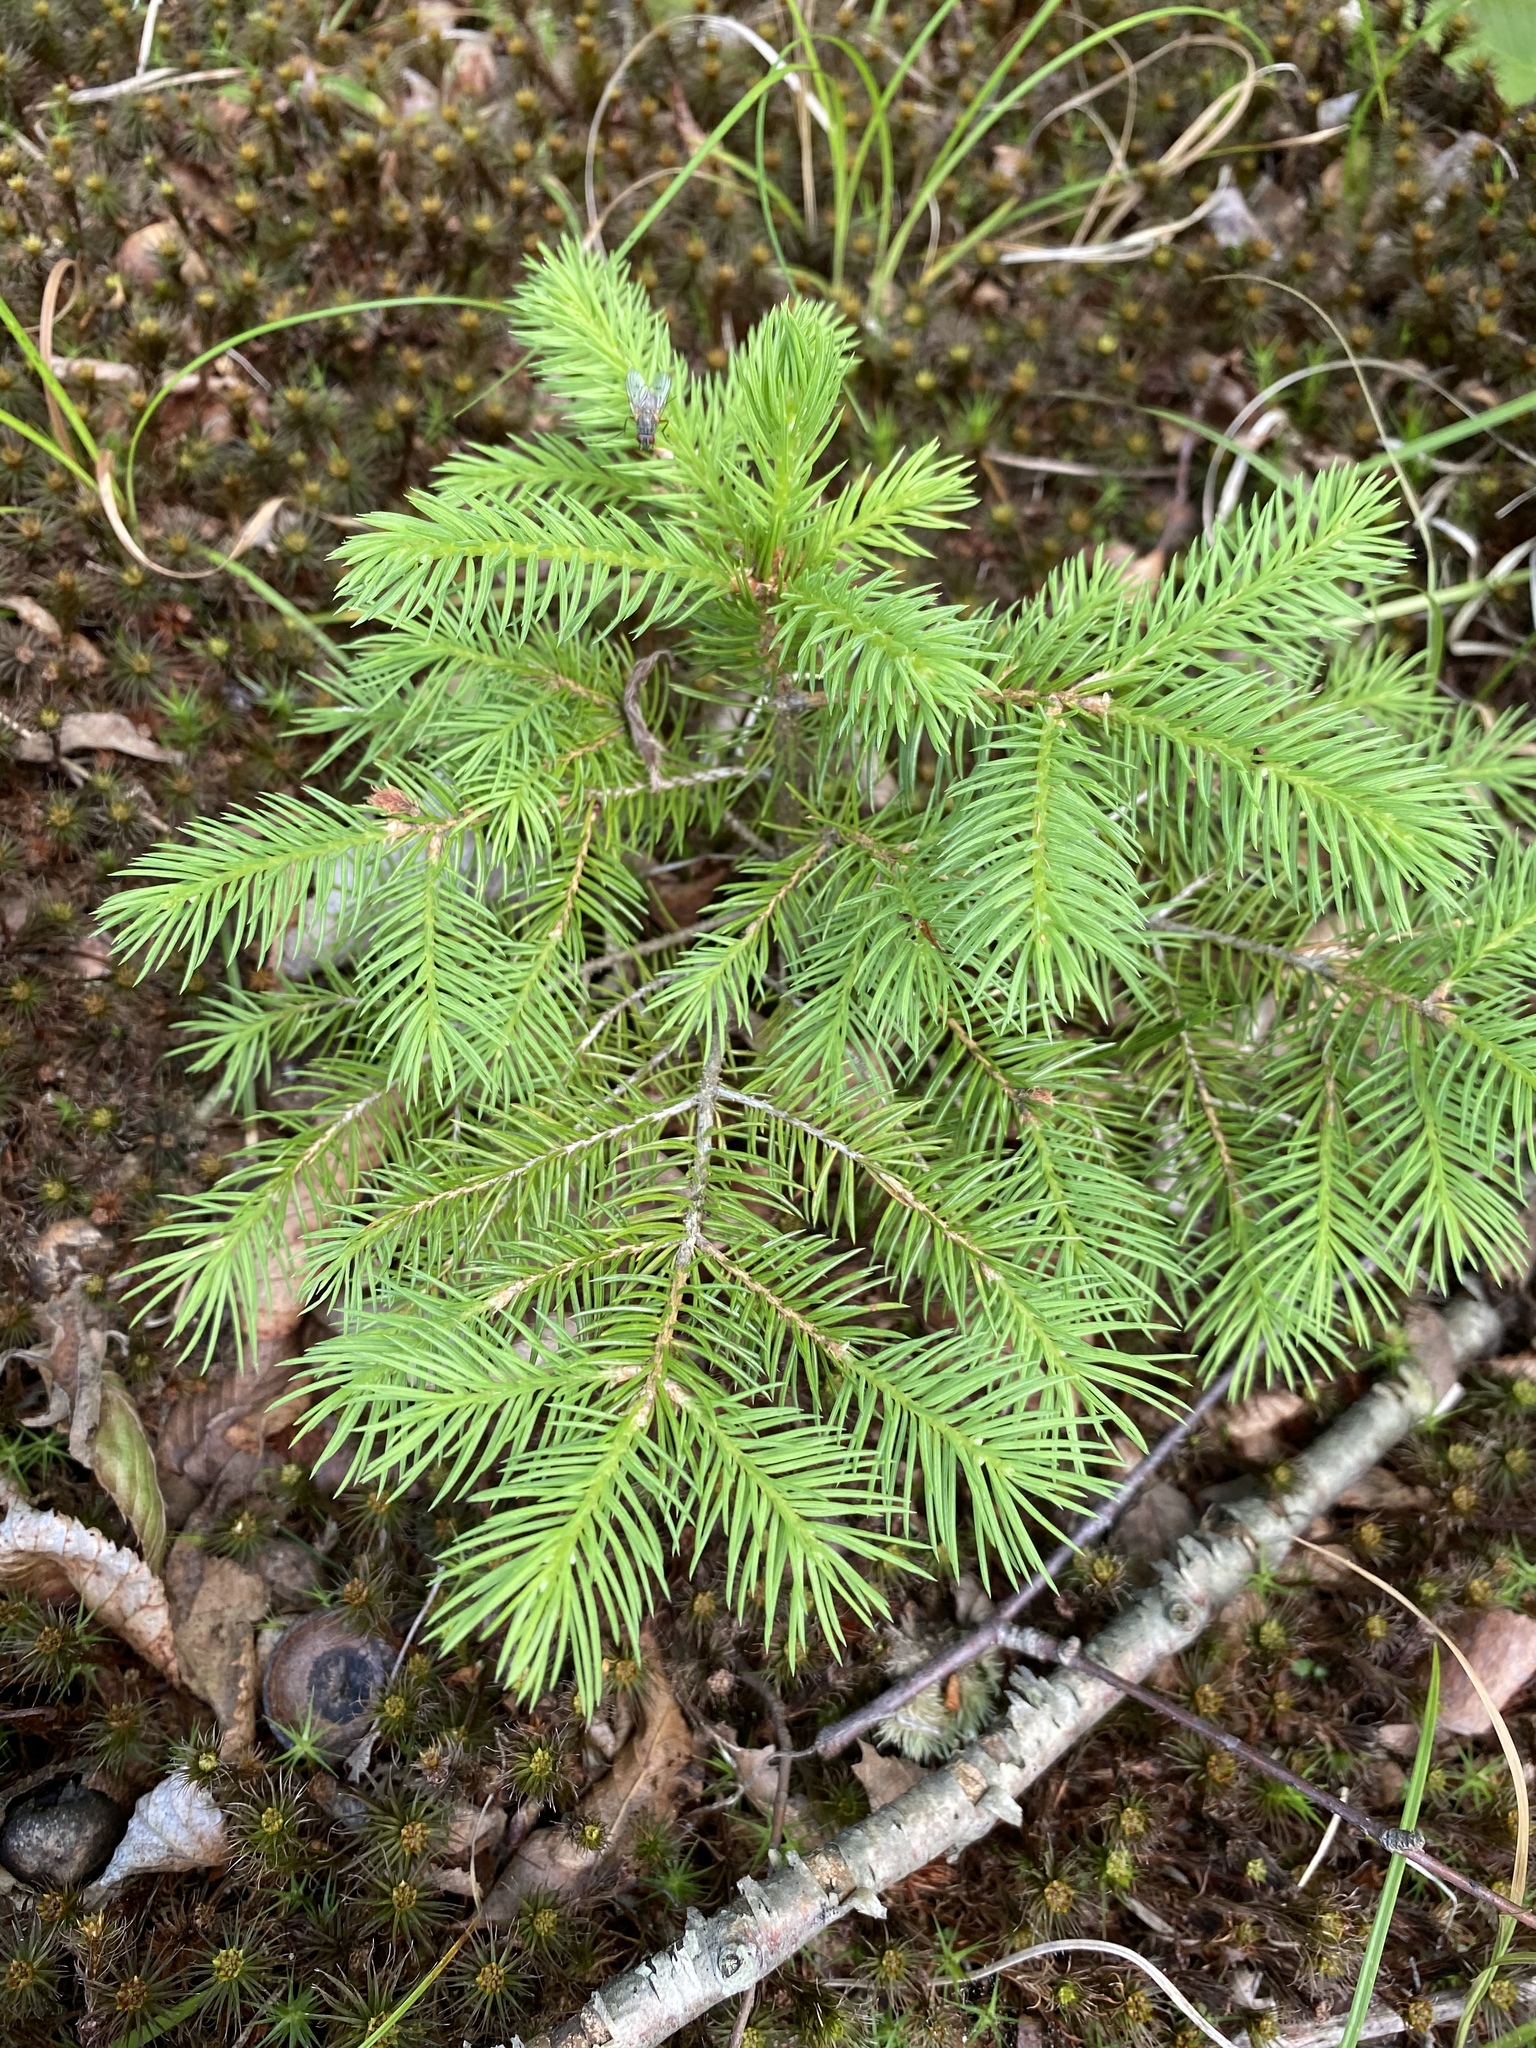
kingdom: Plantae
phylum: Tracheophyta
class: Pinopsida
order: Pinales
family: Pinaceae
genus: Picea
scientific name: Picea abies
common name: Norway spruce
